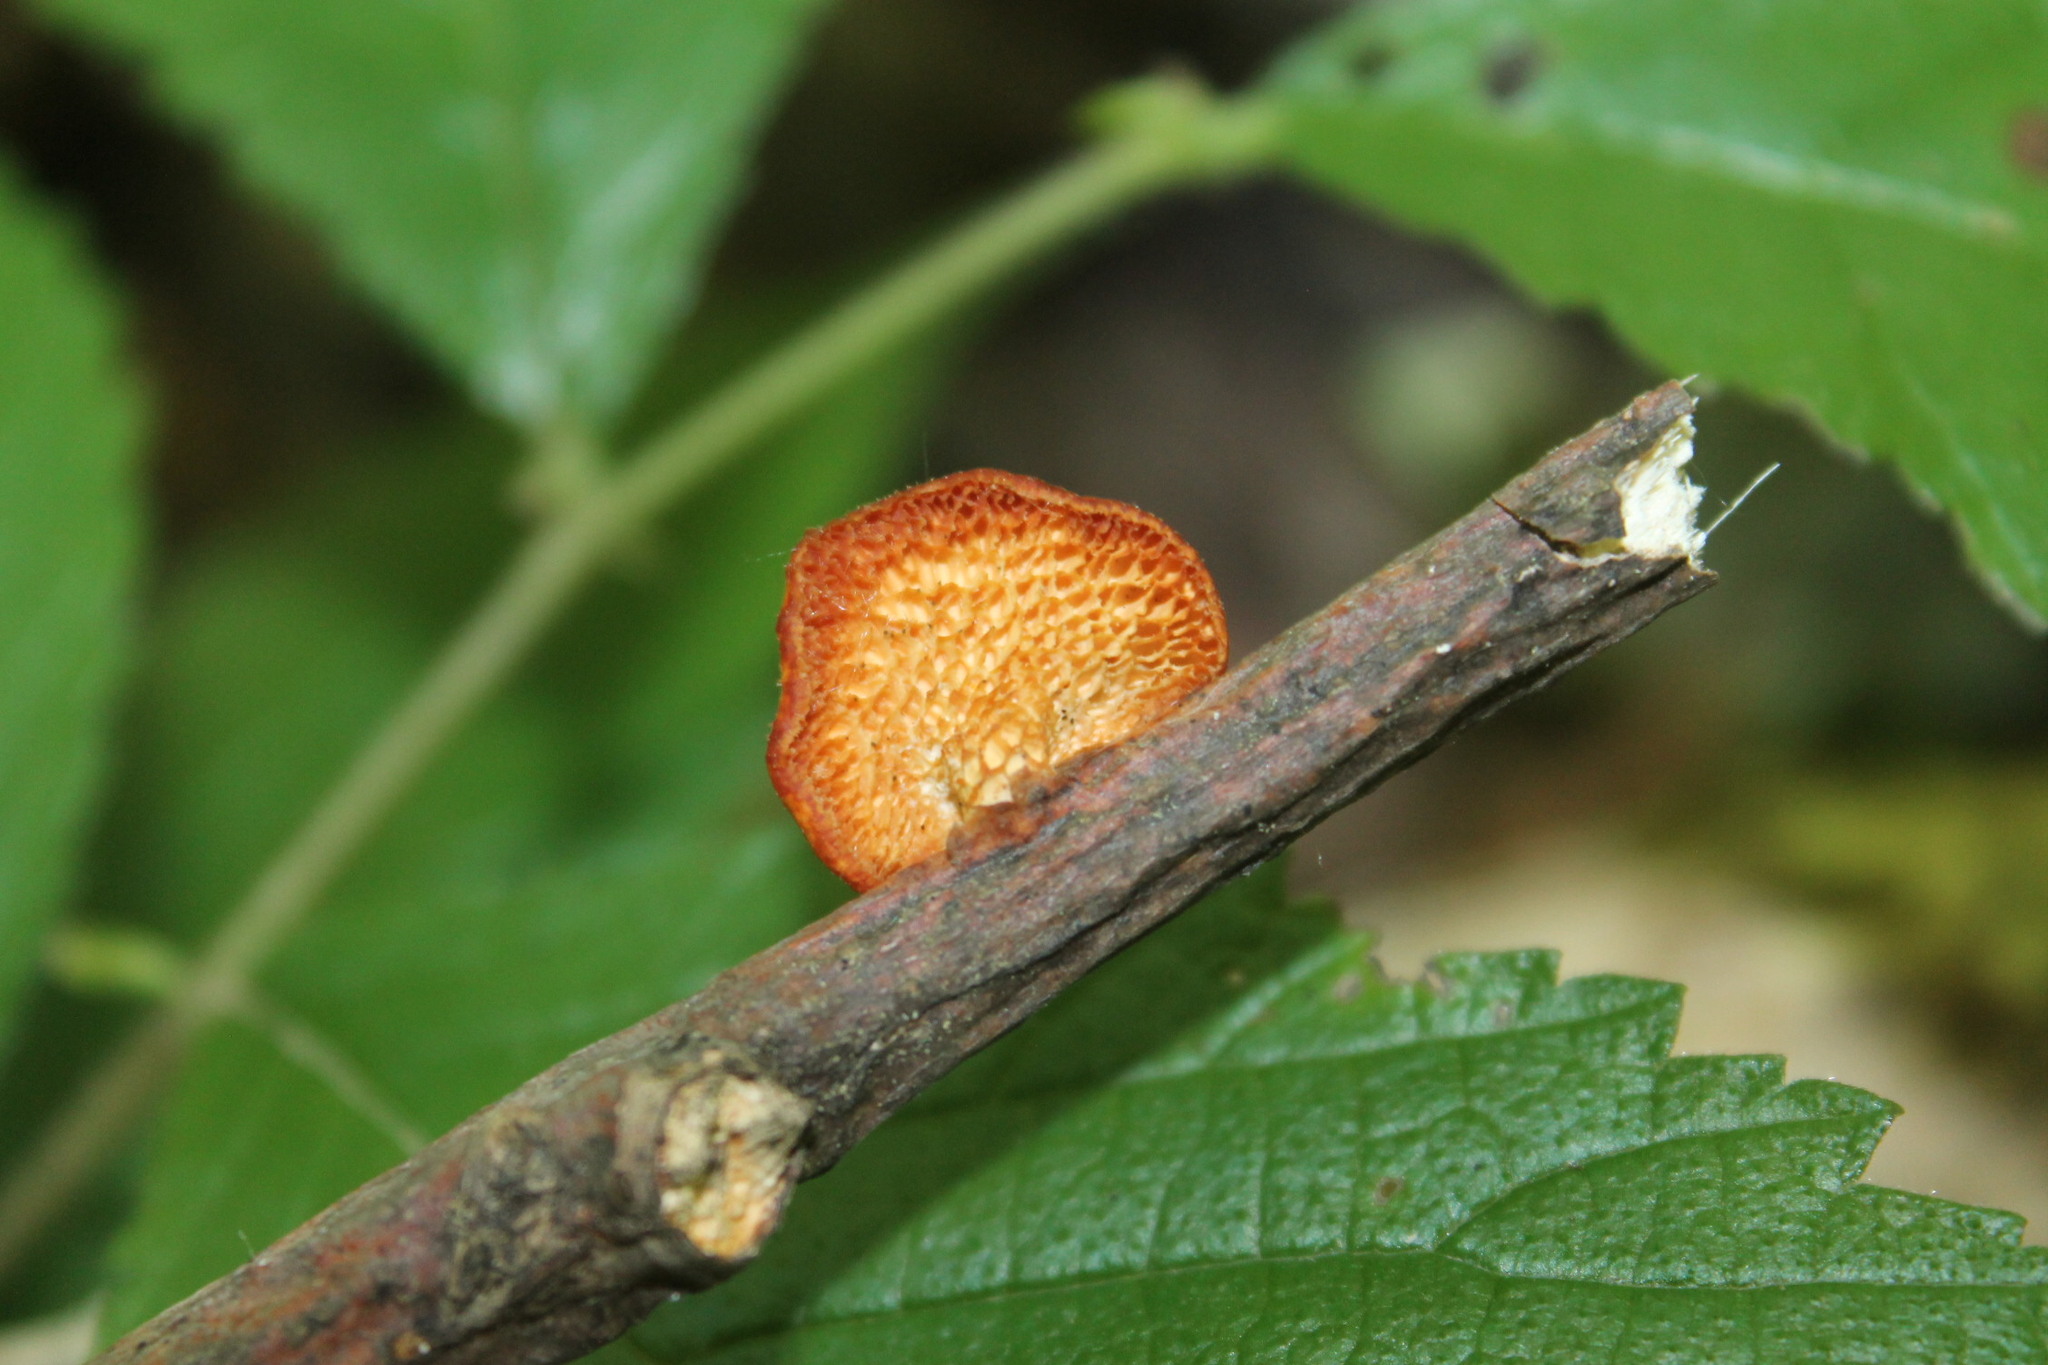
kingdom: Fungi
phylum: Basidiomycota
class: Agaricomycetes
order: Polyporales
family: Polyporaceae
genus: Neofavolus
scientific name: Neofavolus alveolaris
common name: Hexagonal-pored polypore
